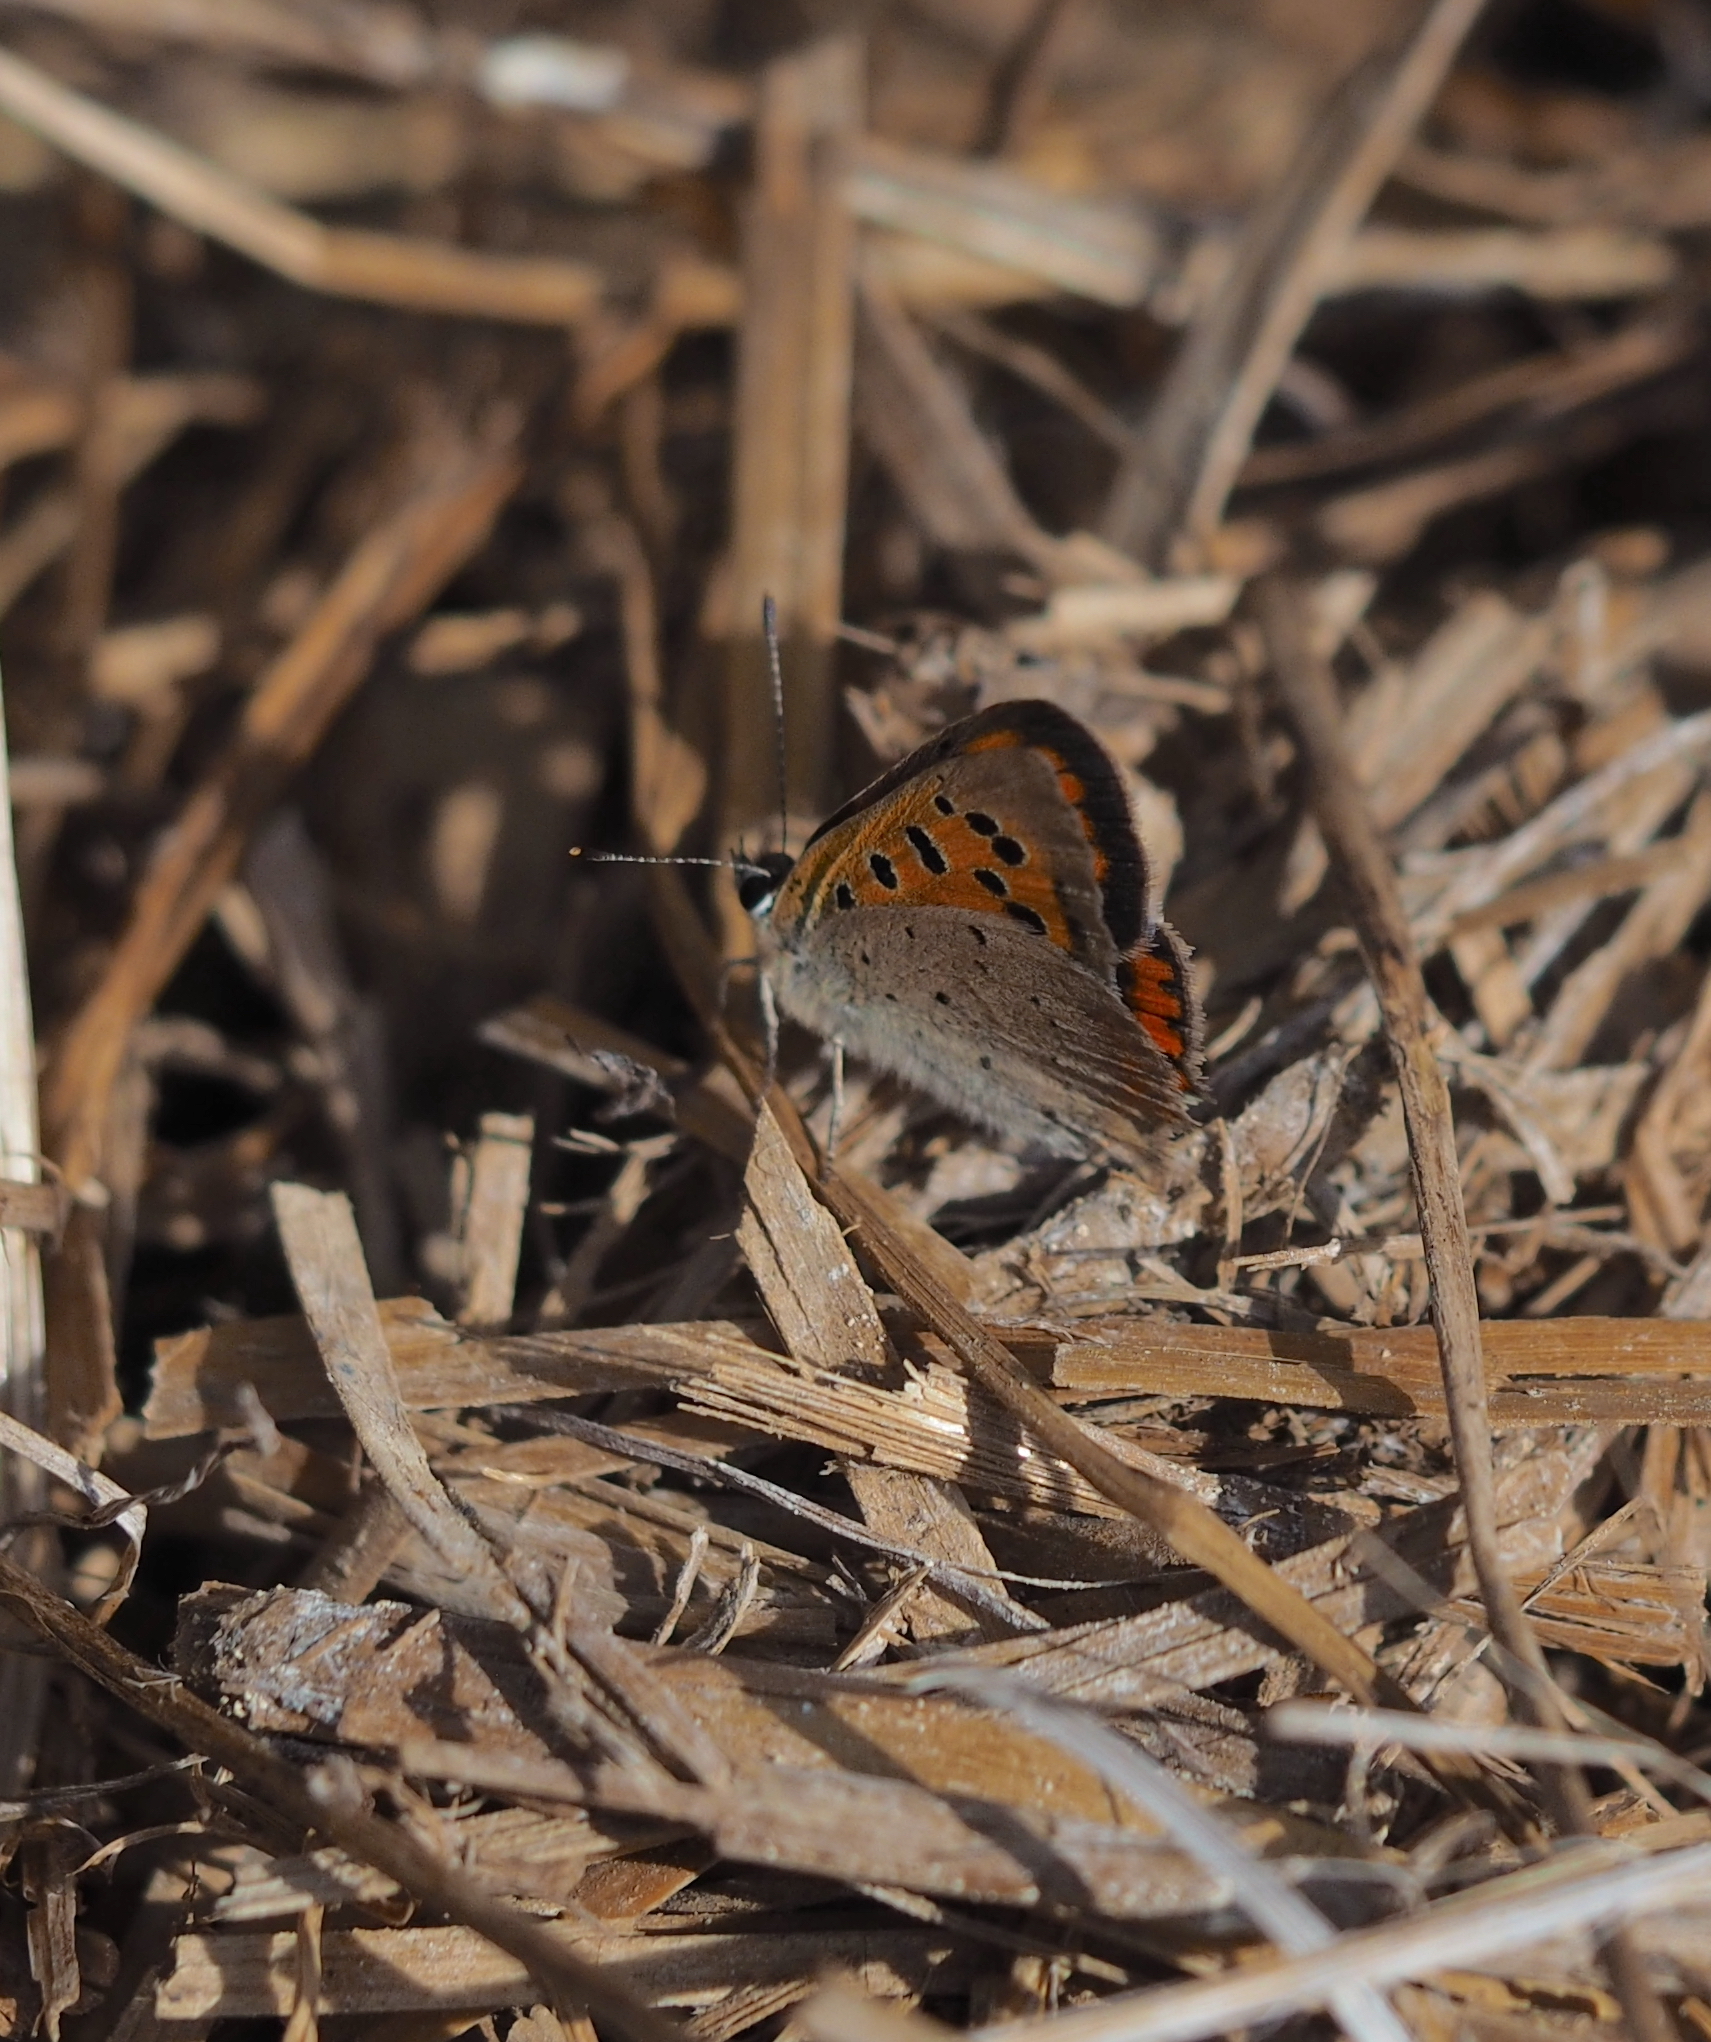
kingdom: Animalia
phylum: Arthropoda
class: Insecta
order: Lepidoptera
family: Lycaenidae
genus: Lycaena
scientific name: Lycaena phlaeas
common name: Small copper
